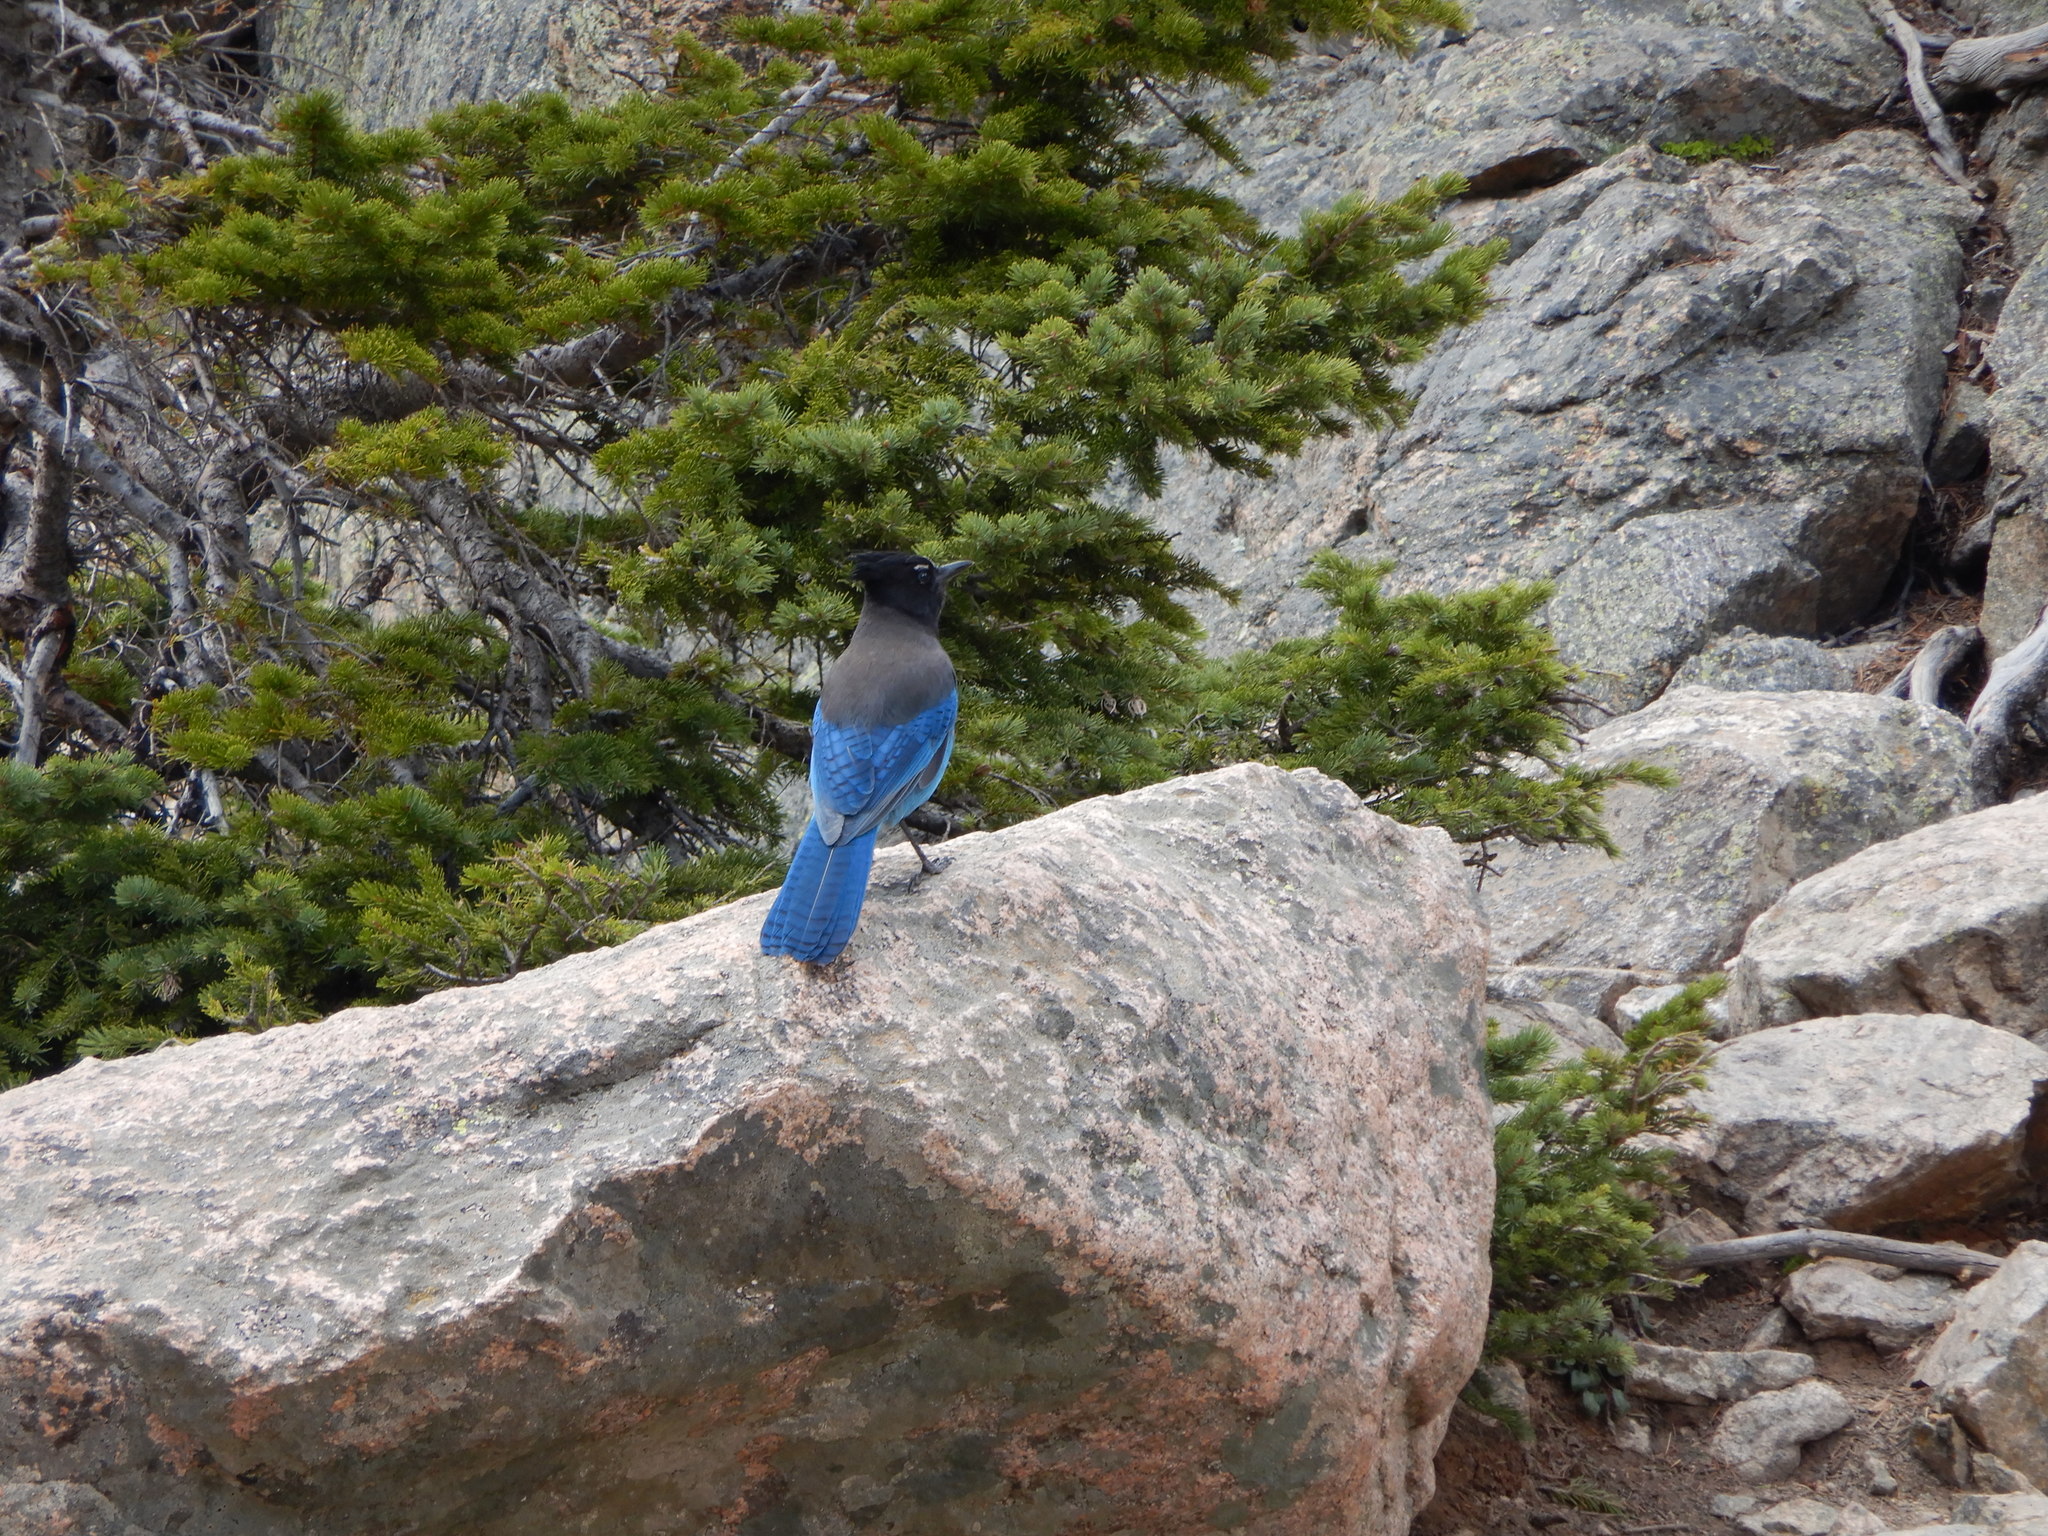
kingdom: Animalia
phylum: Chordata
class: Aves
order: Passeriformes
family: Corvidae
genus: Cyanocitta
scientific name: Cyanocitta stelleri
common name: Steller's jay
